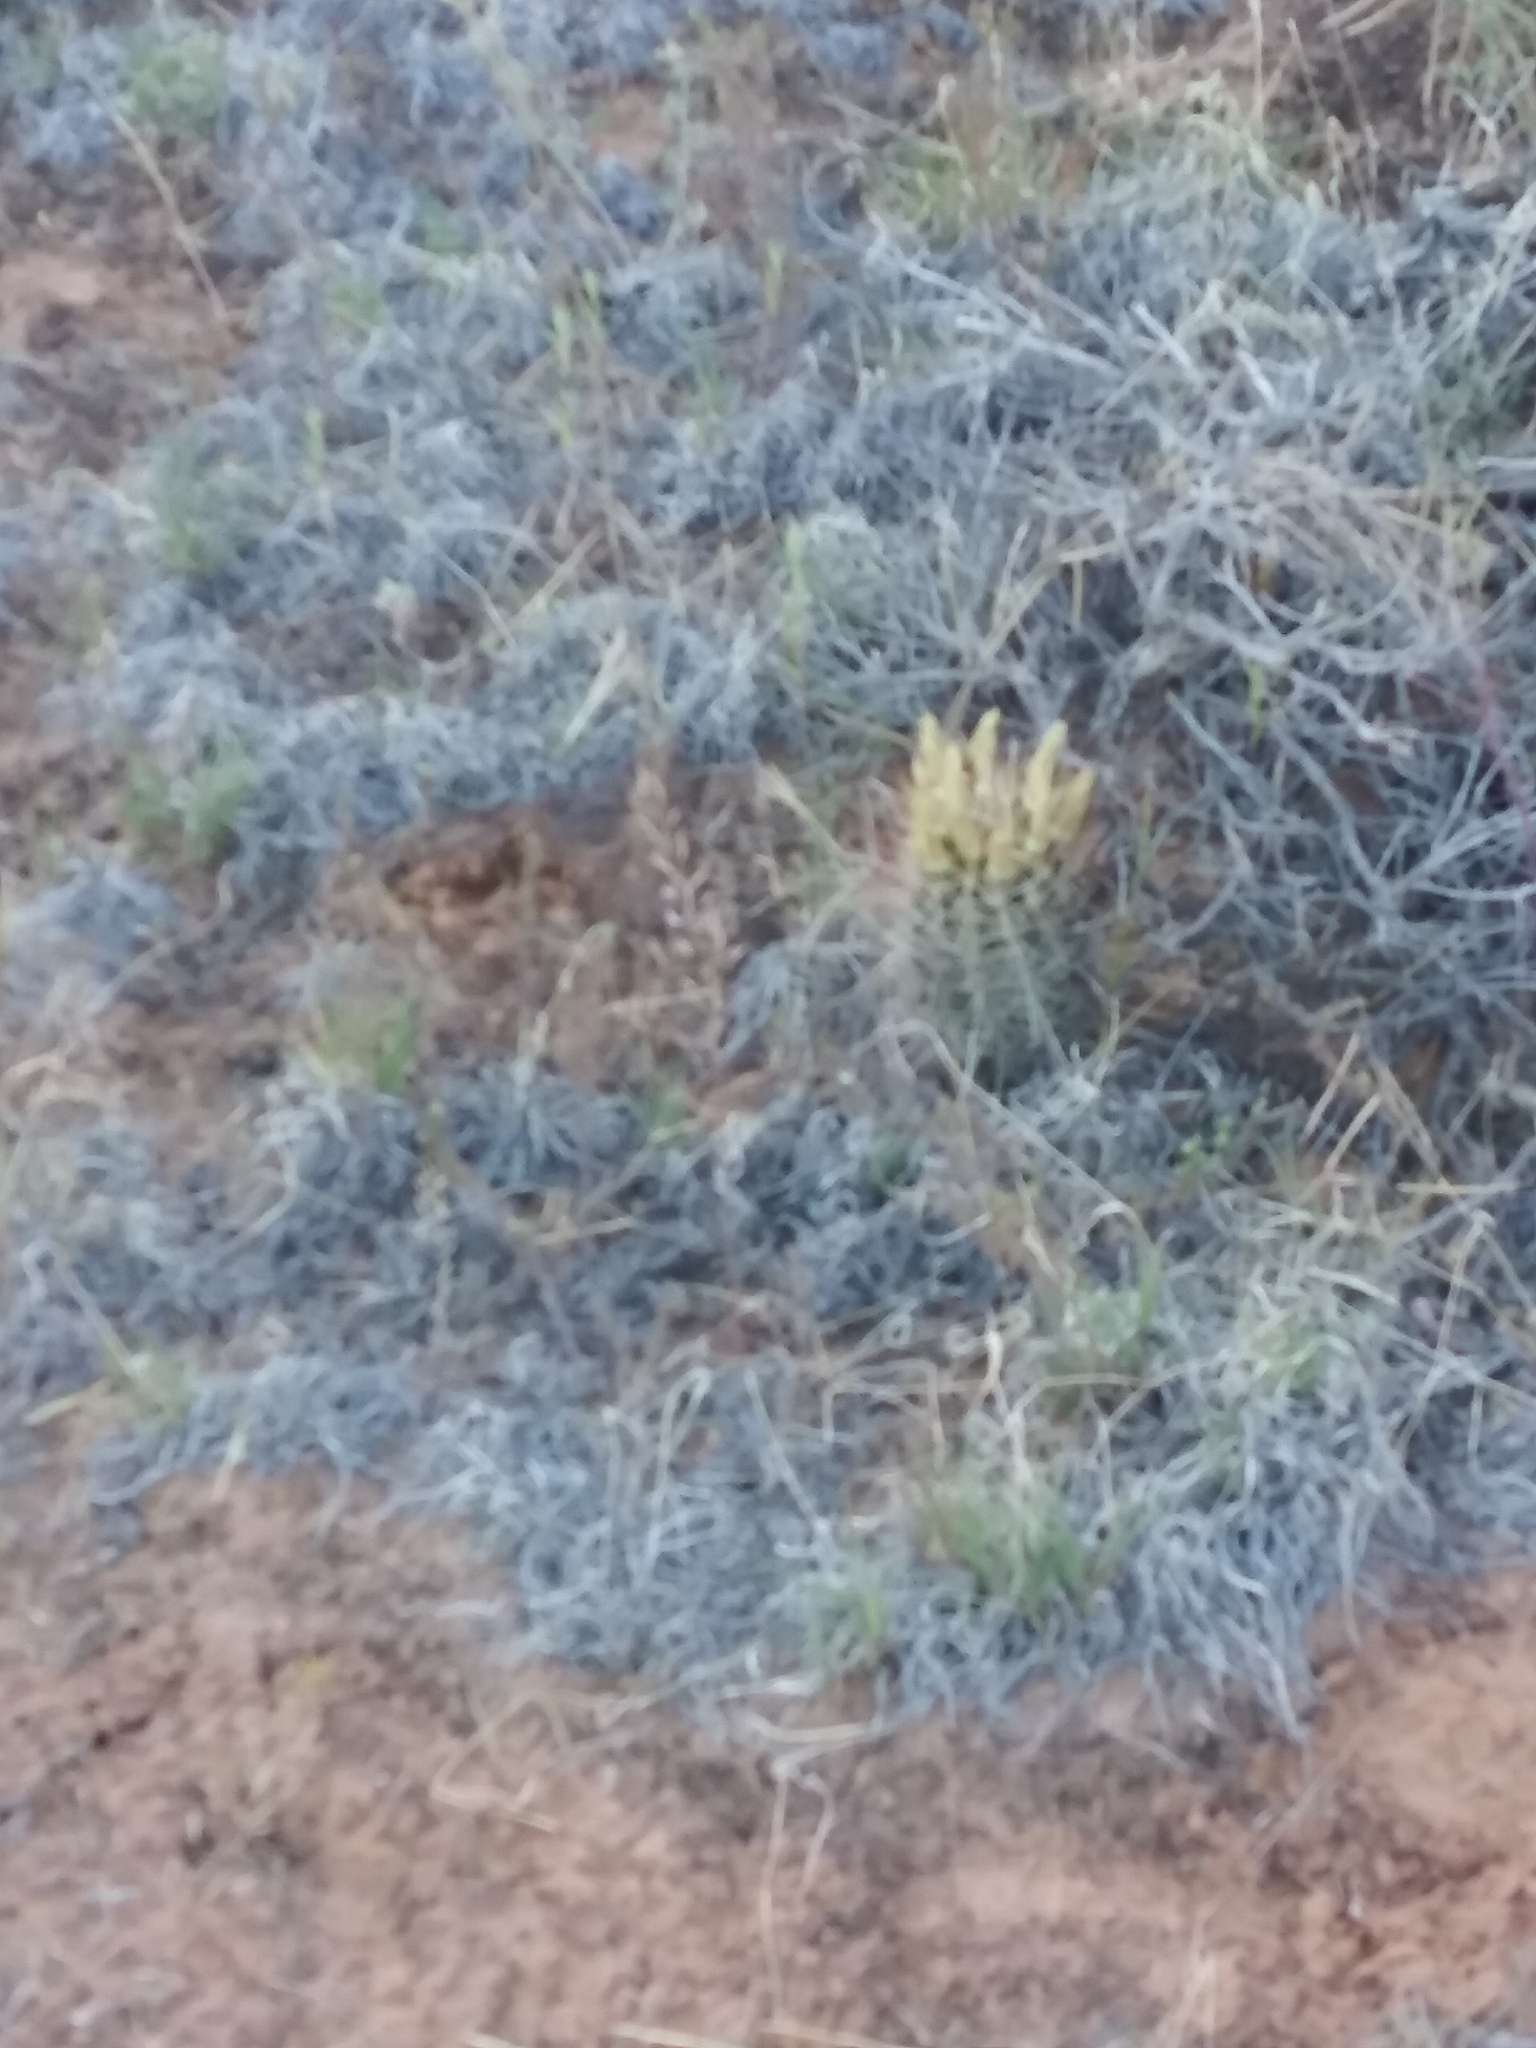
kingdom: Plantae
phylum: Tracheophyta
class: Magnoliopsida
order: Caryophyllales
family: Cactaceae
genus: Sclerocactus
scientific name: Sclerocactus parviflorus
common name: Small-flower fishhook cactus
